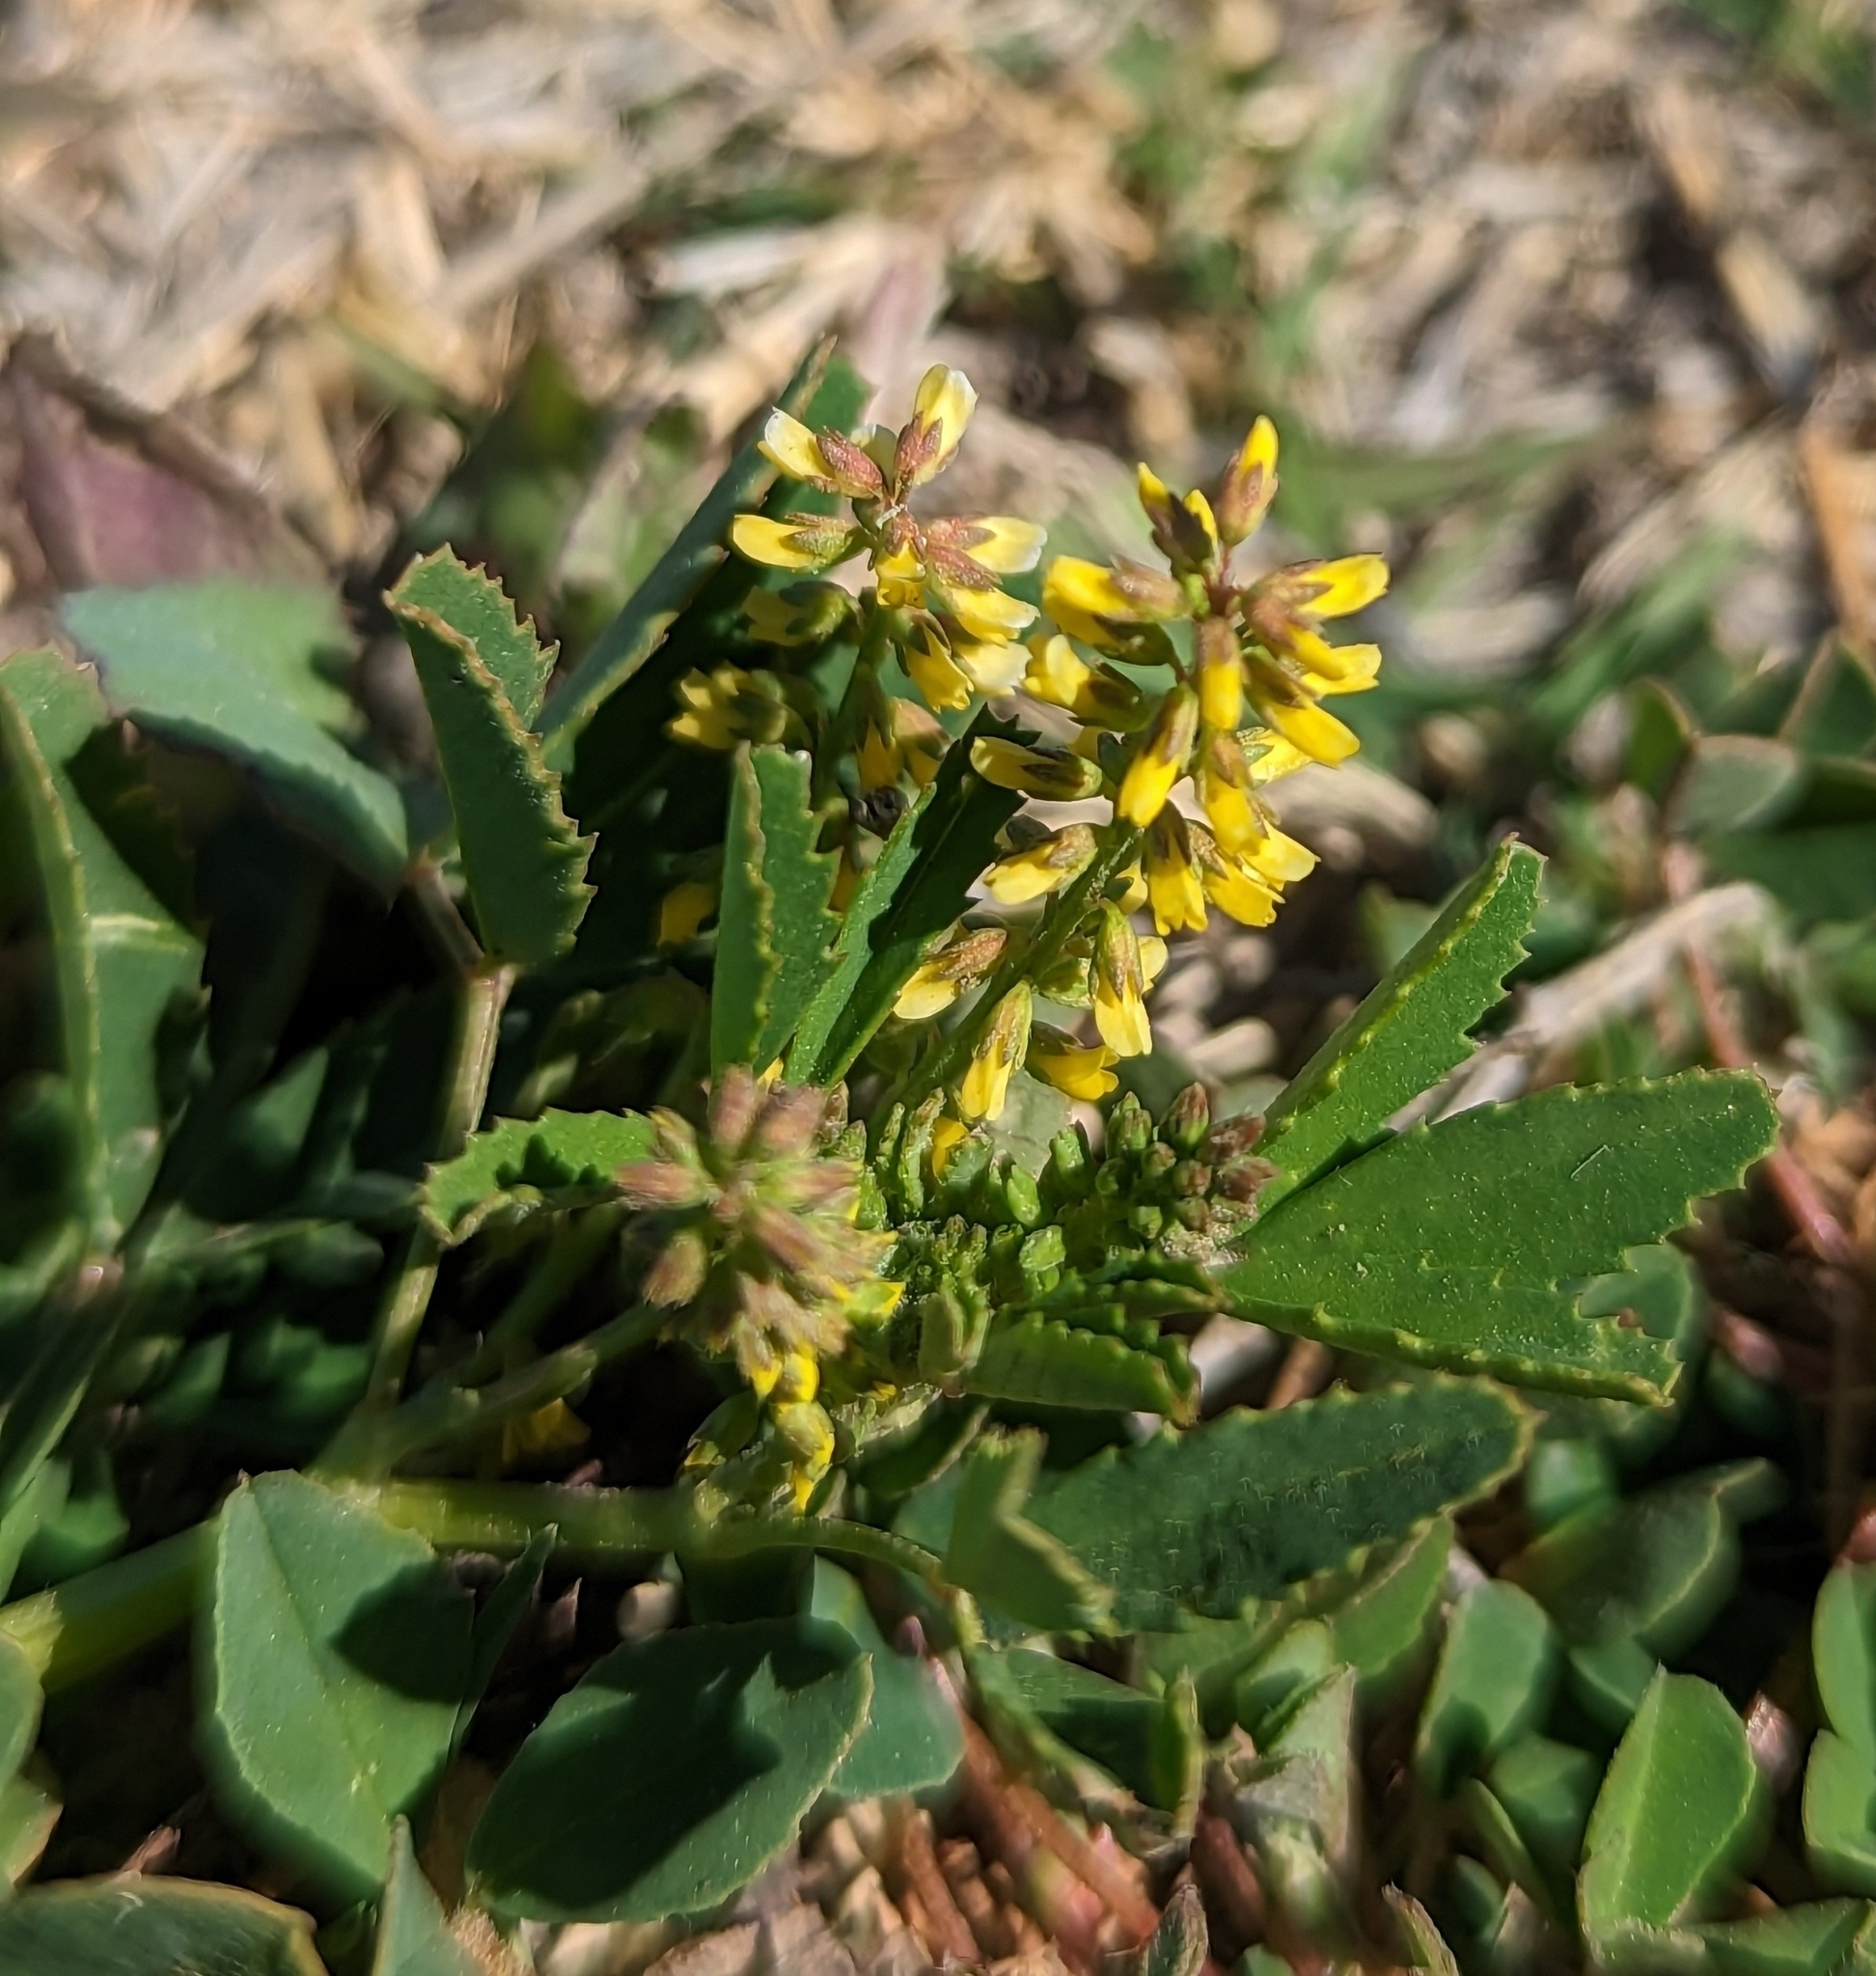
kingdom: Plantae
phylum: Tracheophyta
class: Magnoliopsida
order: Fabales
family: Fabaceae
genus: Melilotus
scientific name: Melilotus indicus
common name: Small melilot
